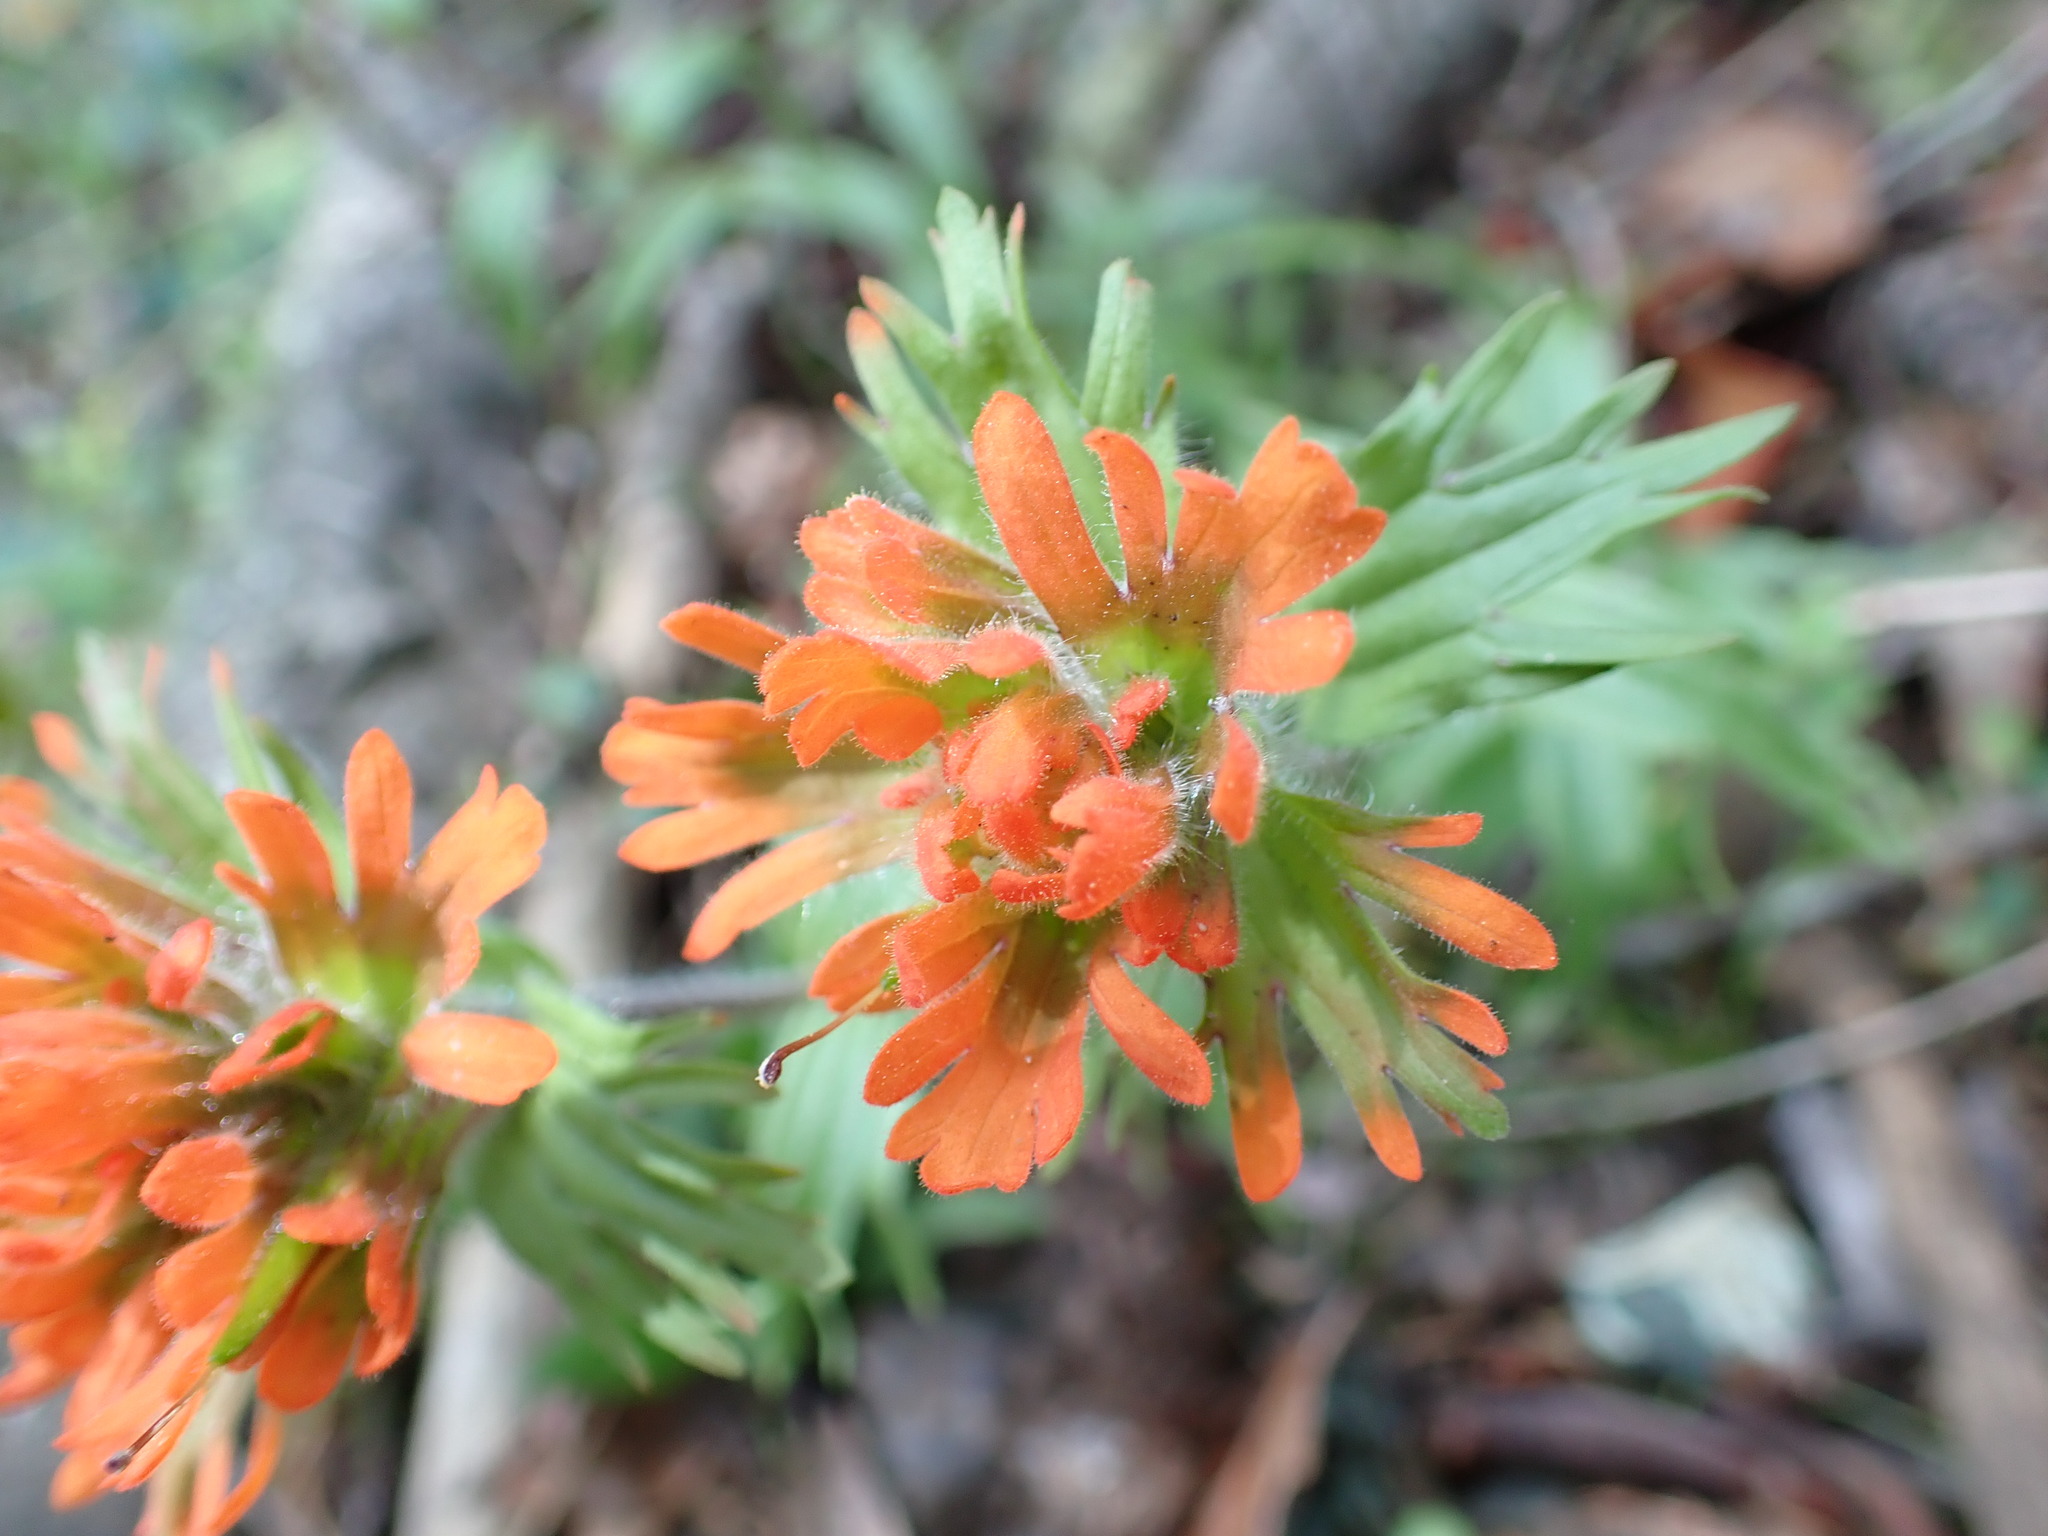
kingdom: Plantae
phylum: Tracheophyta
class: Magnoliopsida
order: Lamiales
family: Orobanchaceae
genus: Castilleja
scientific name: Castilleja hispida
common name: Bristly paintbrush
